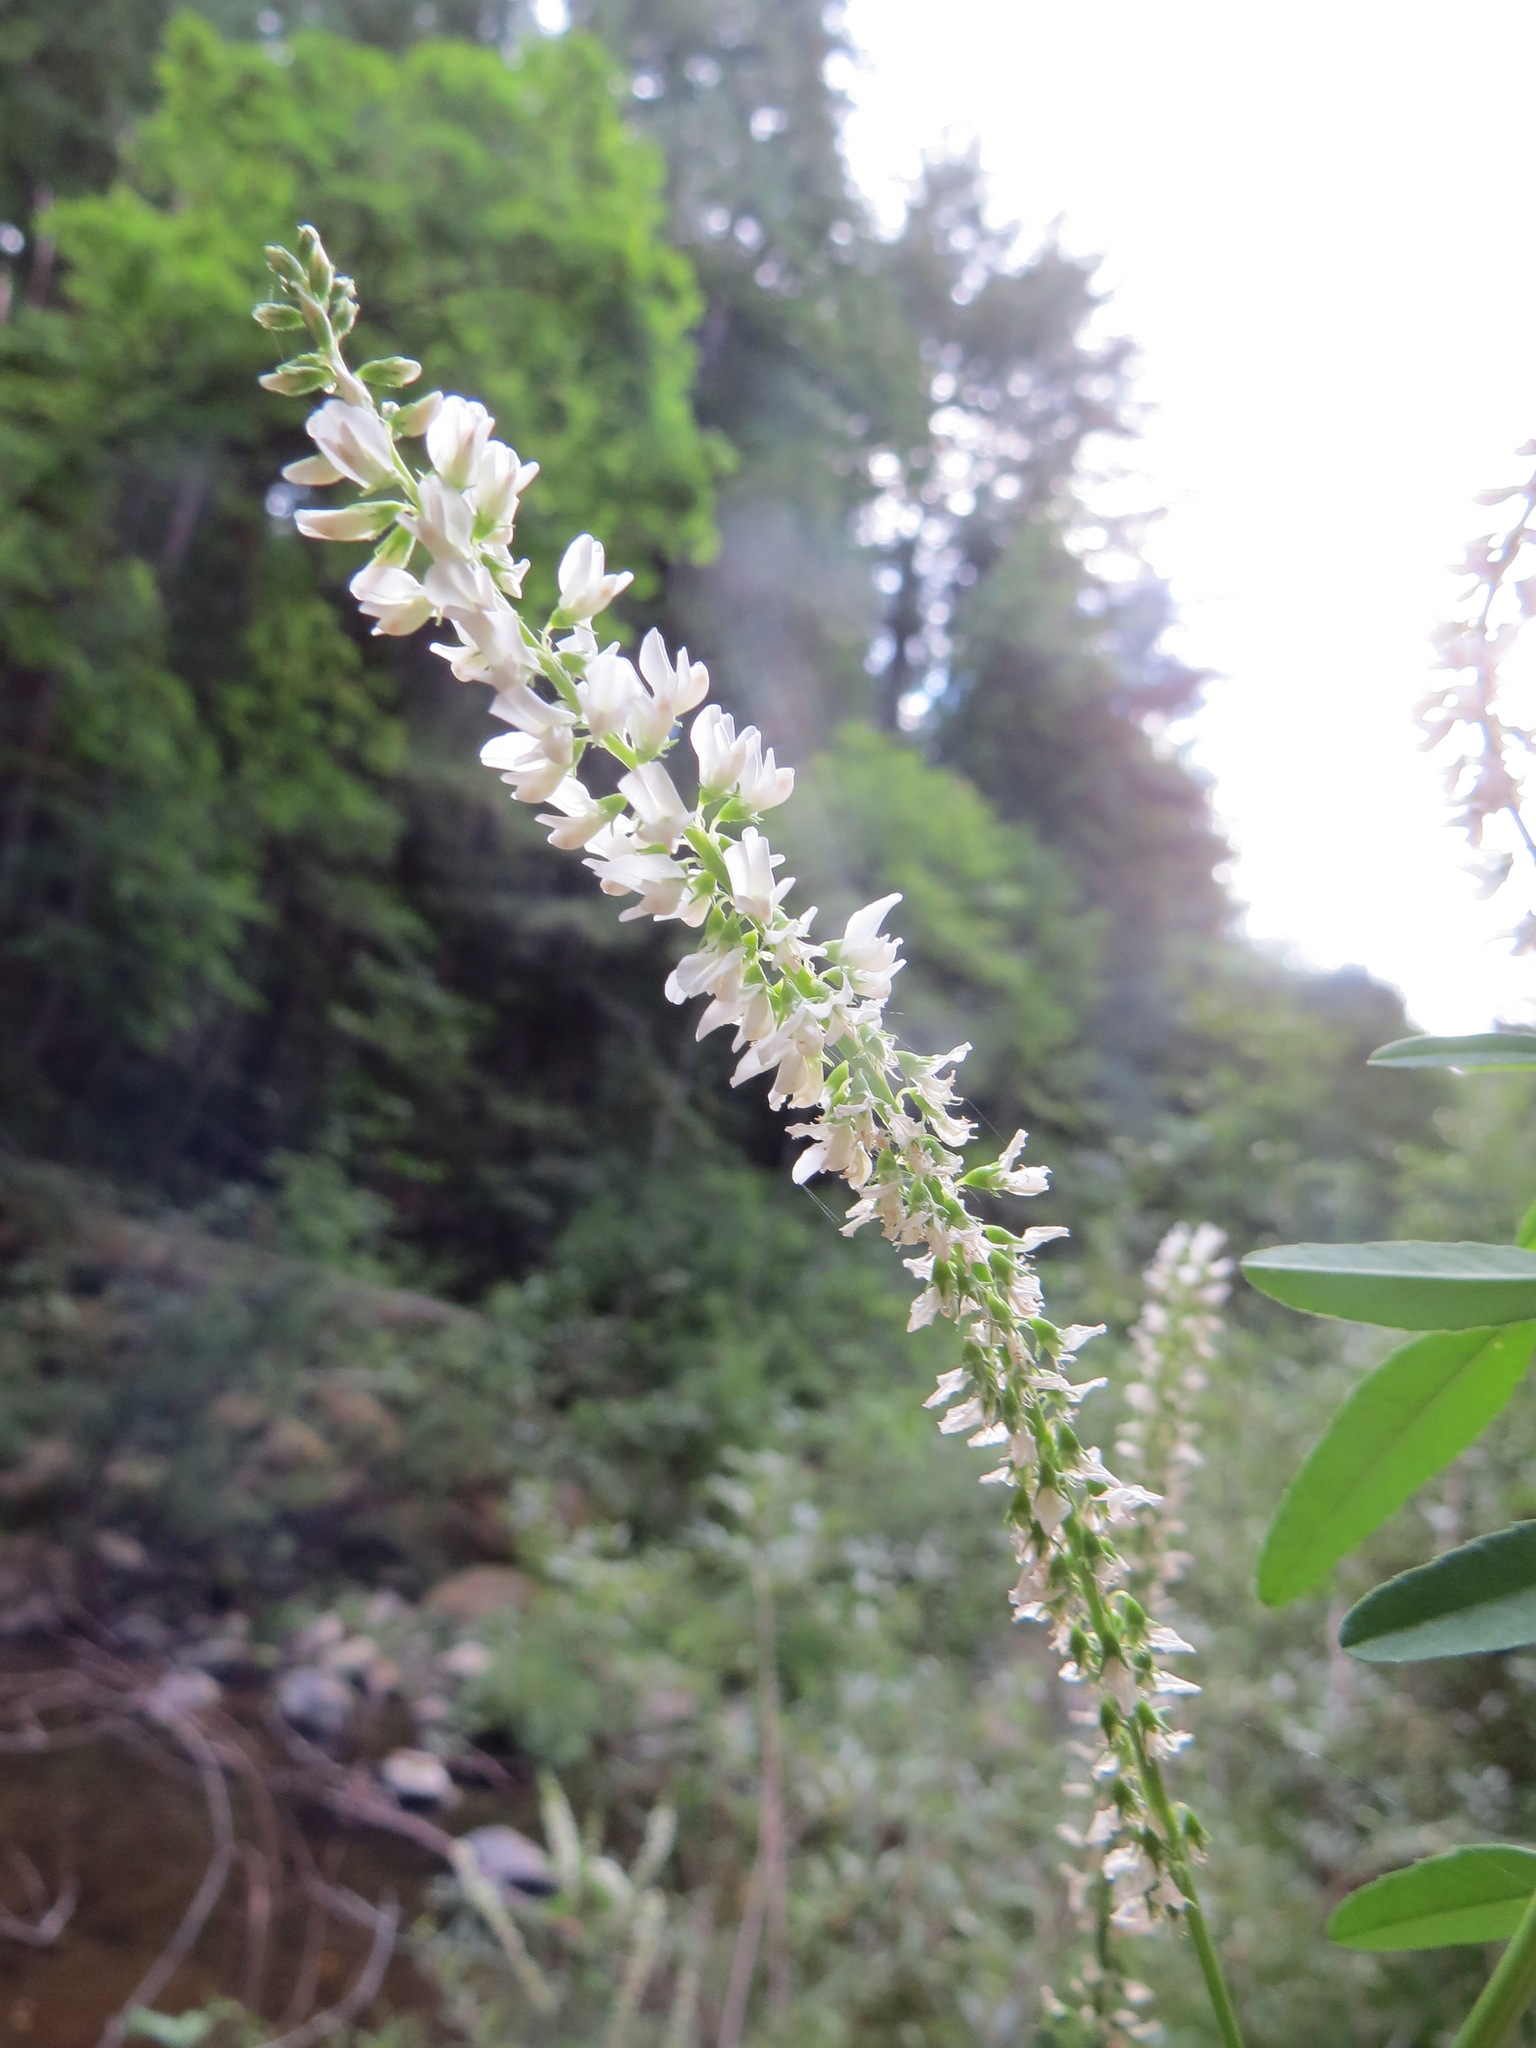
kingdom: Plantae
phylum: Tracheophyta
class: Magnoliopsida
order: Fabales
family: Fabaceae
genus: Melilotus
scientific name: Melilotus albus
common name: White melilot
